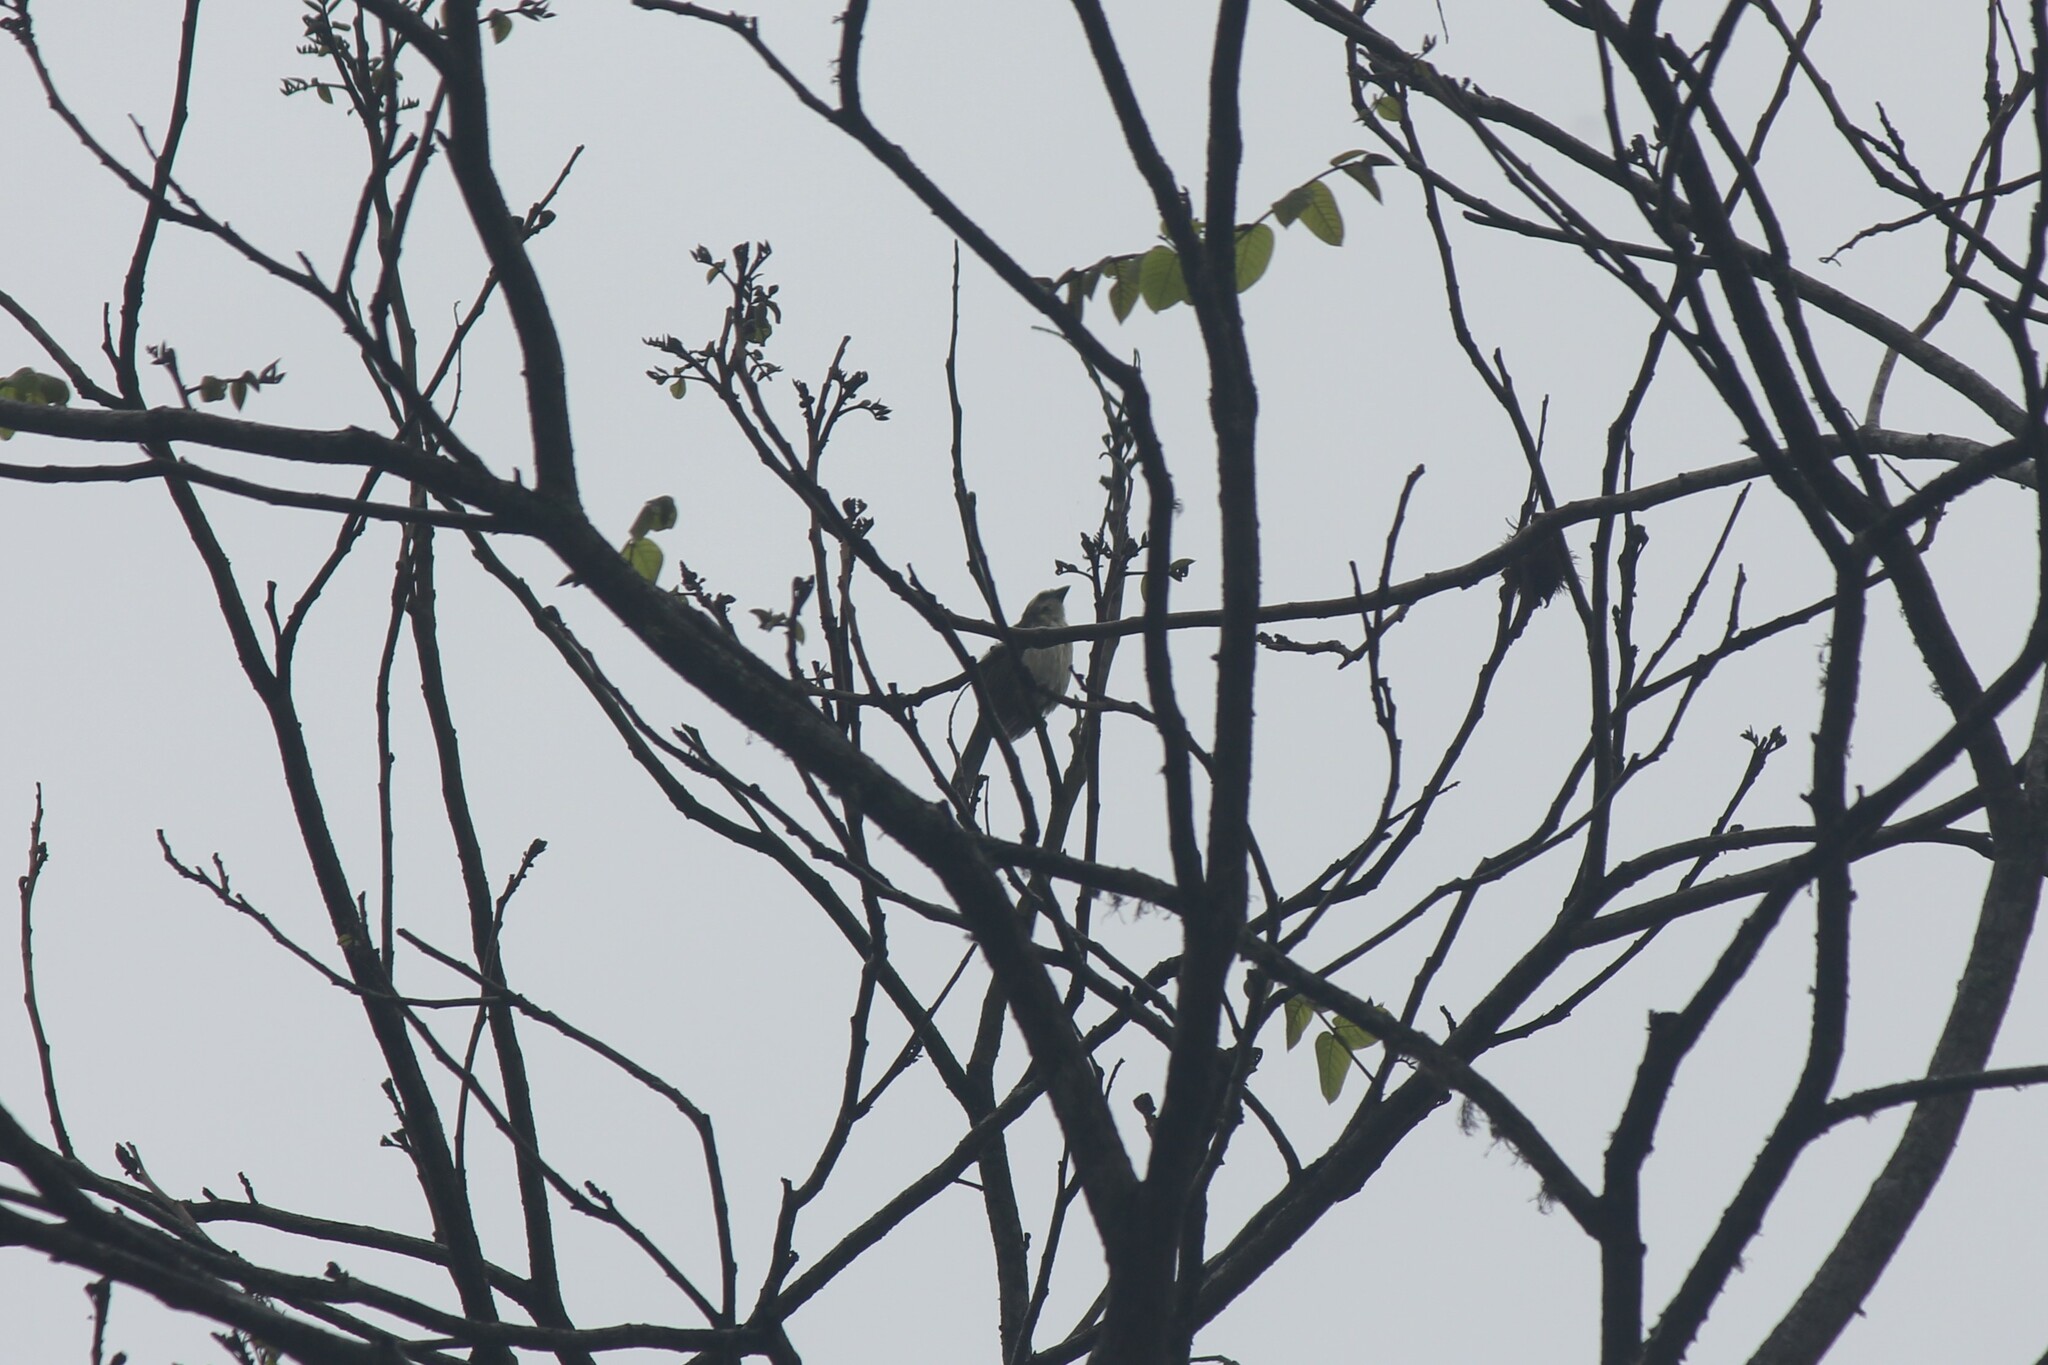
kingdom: Animalia
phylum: Chordata
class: Aves
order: Passeriformes
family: Thraupidae
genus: Saltator
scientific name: Saltator striatipectus
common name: Streaked saltator
